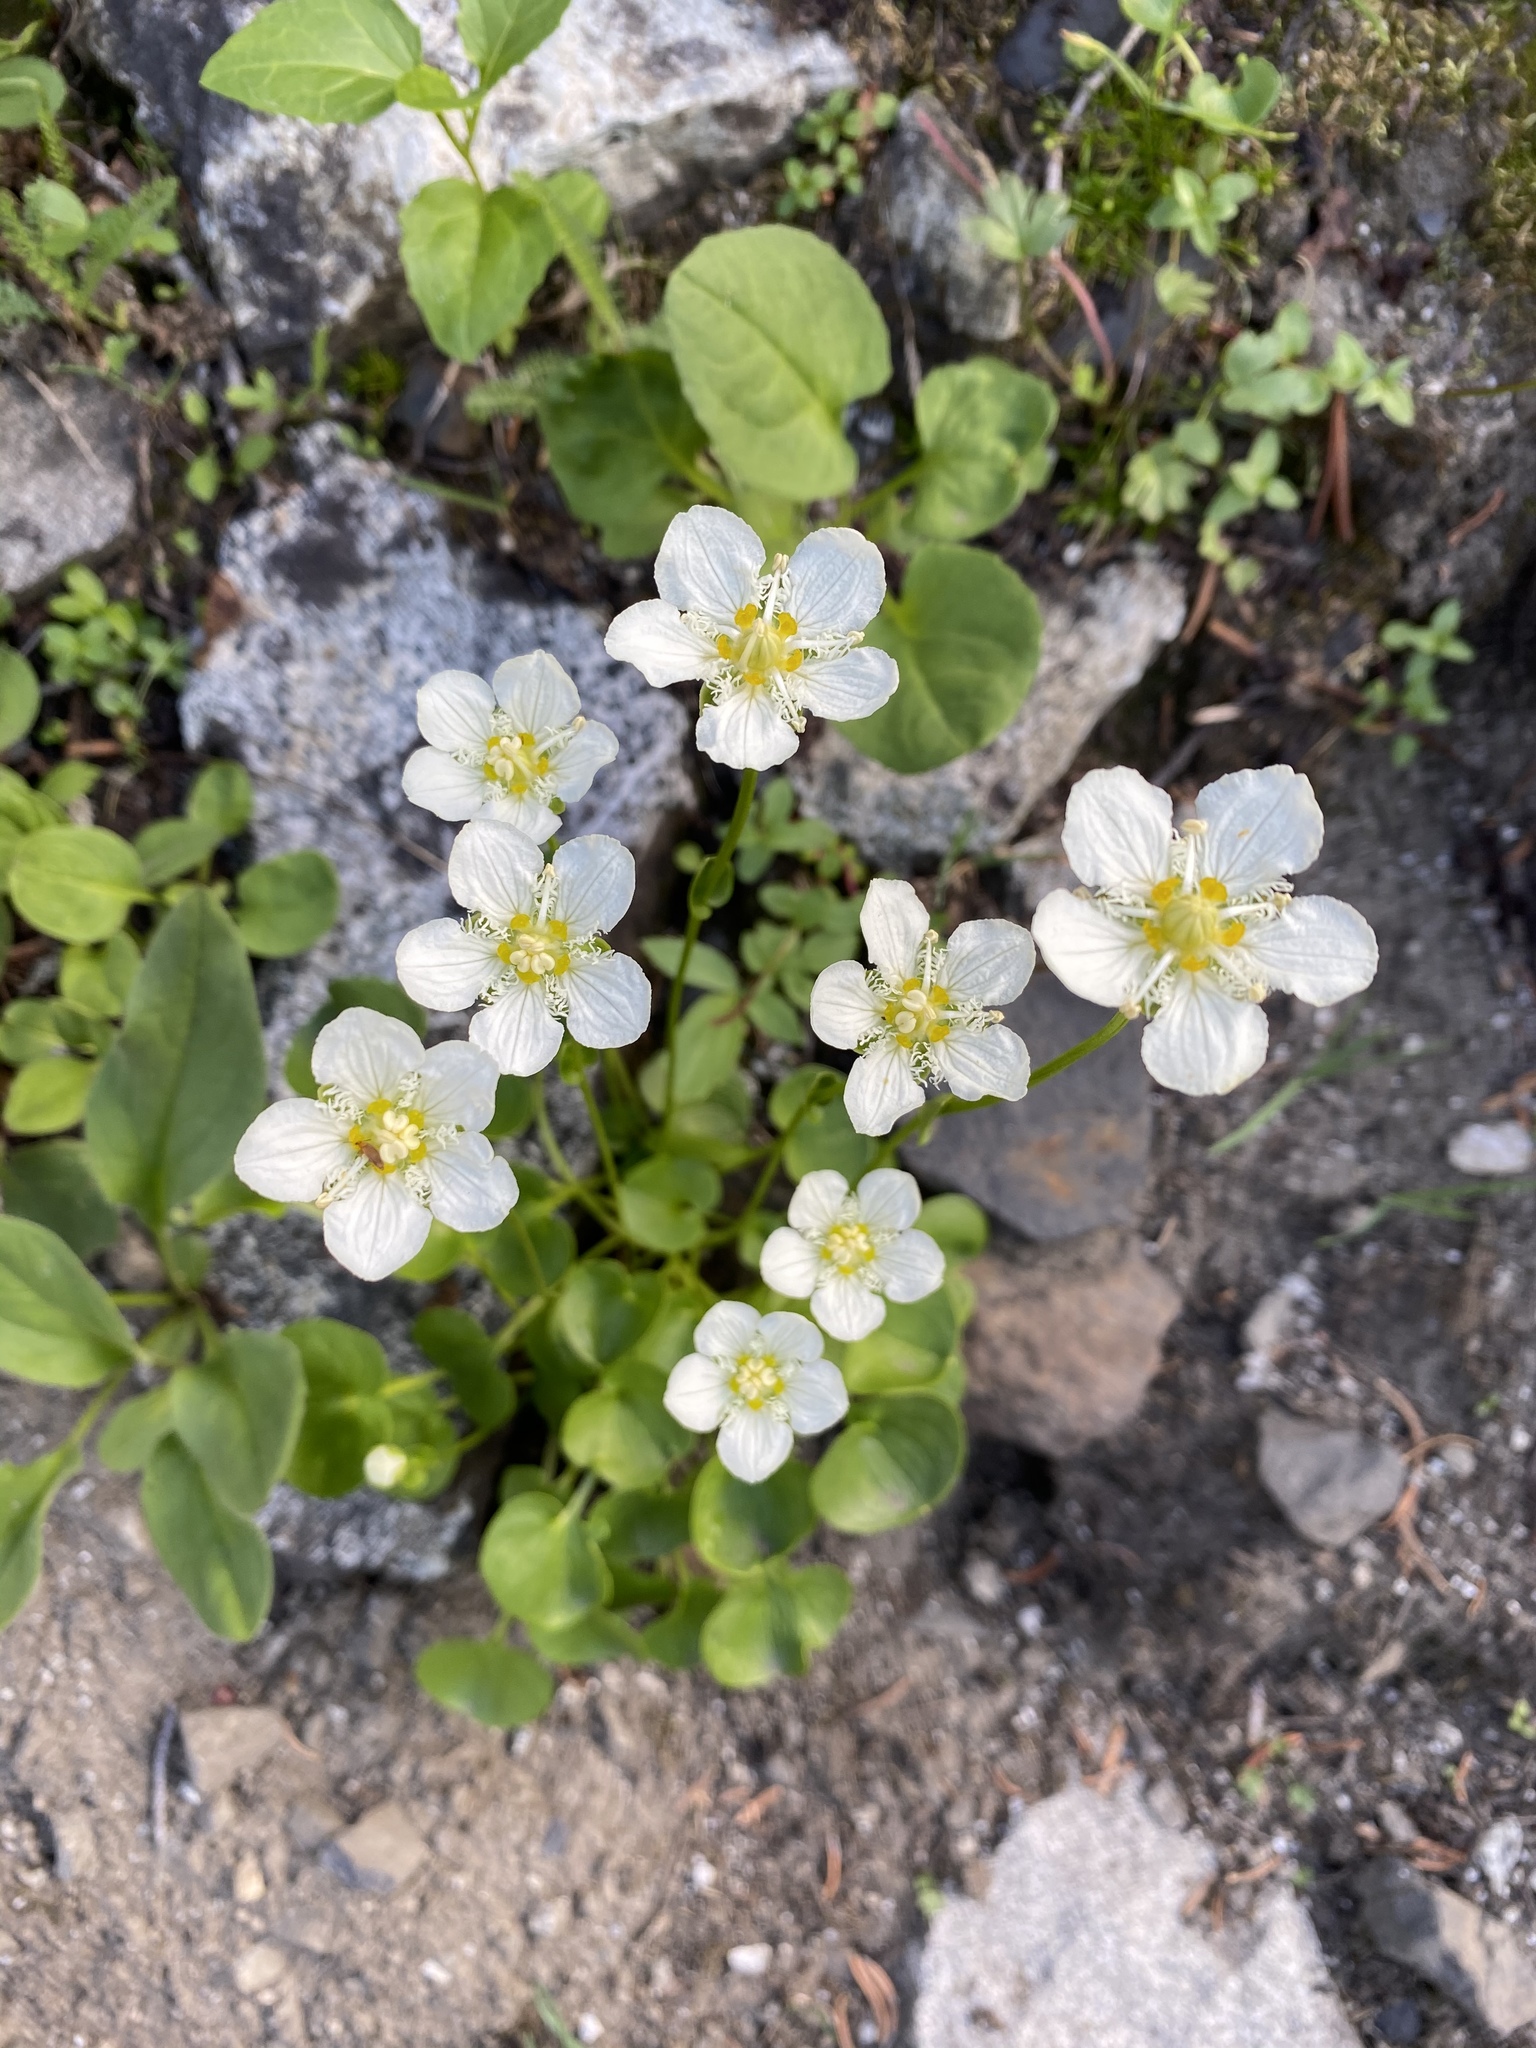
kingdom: Plantae
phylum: Tracheophyta
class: Magnoliopsida
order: Celastrales
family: Parnassiaceae
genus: Parnassia
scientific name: Parnassia fimbriata
